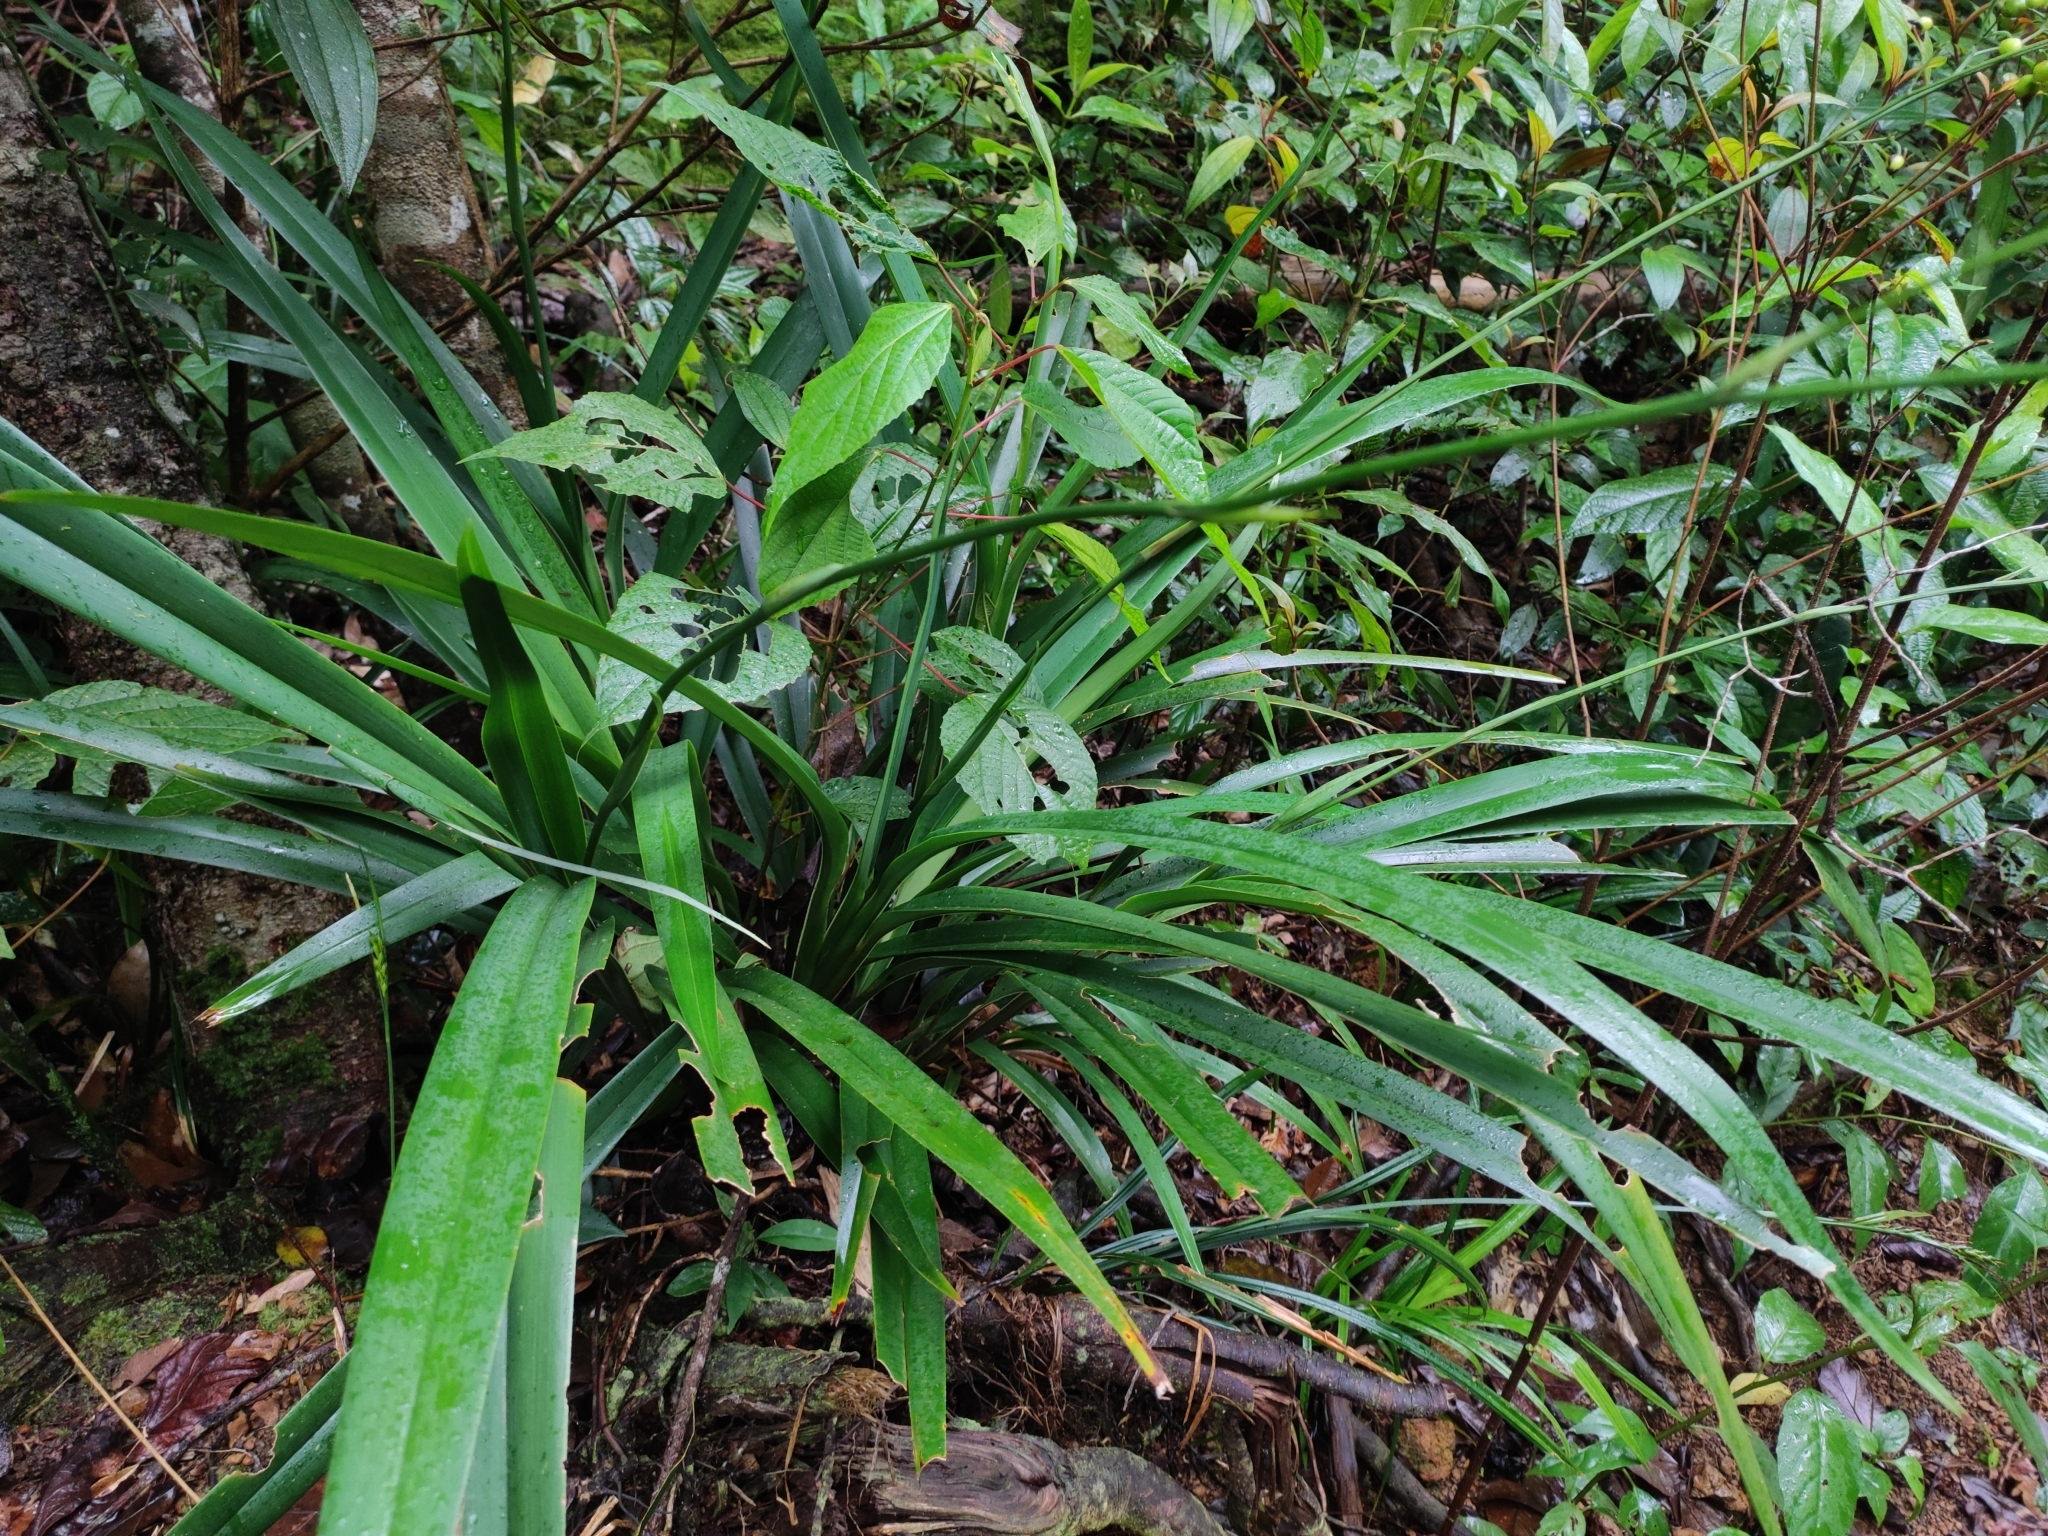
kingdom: Plantae
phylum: Tracheophyta
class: Liliopsida
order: Asparagales
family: Asphodelaceae
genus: Dianella
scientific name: Dianella ensifolia
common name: New zealand lilyplant
